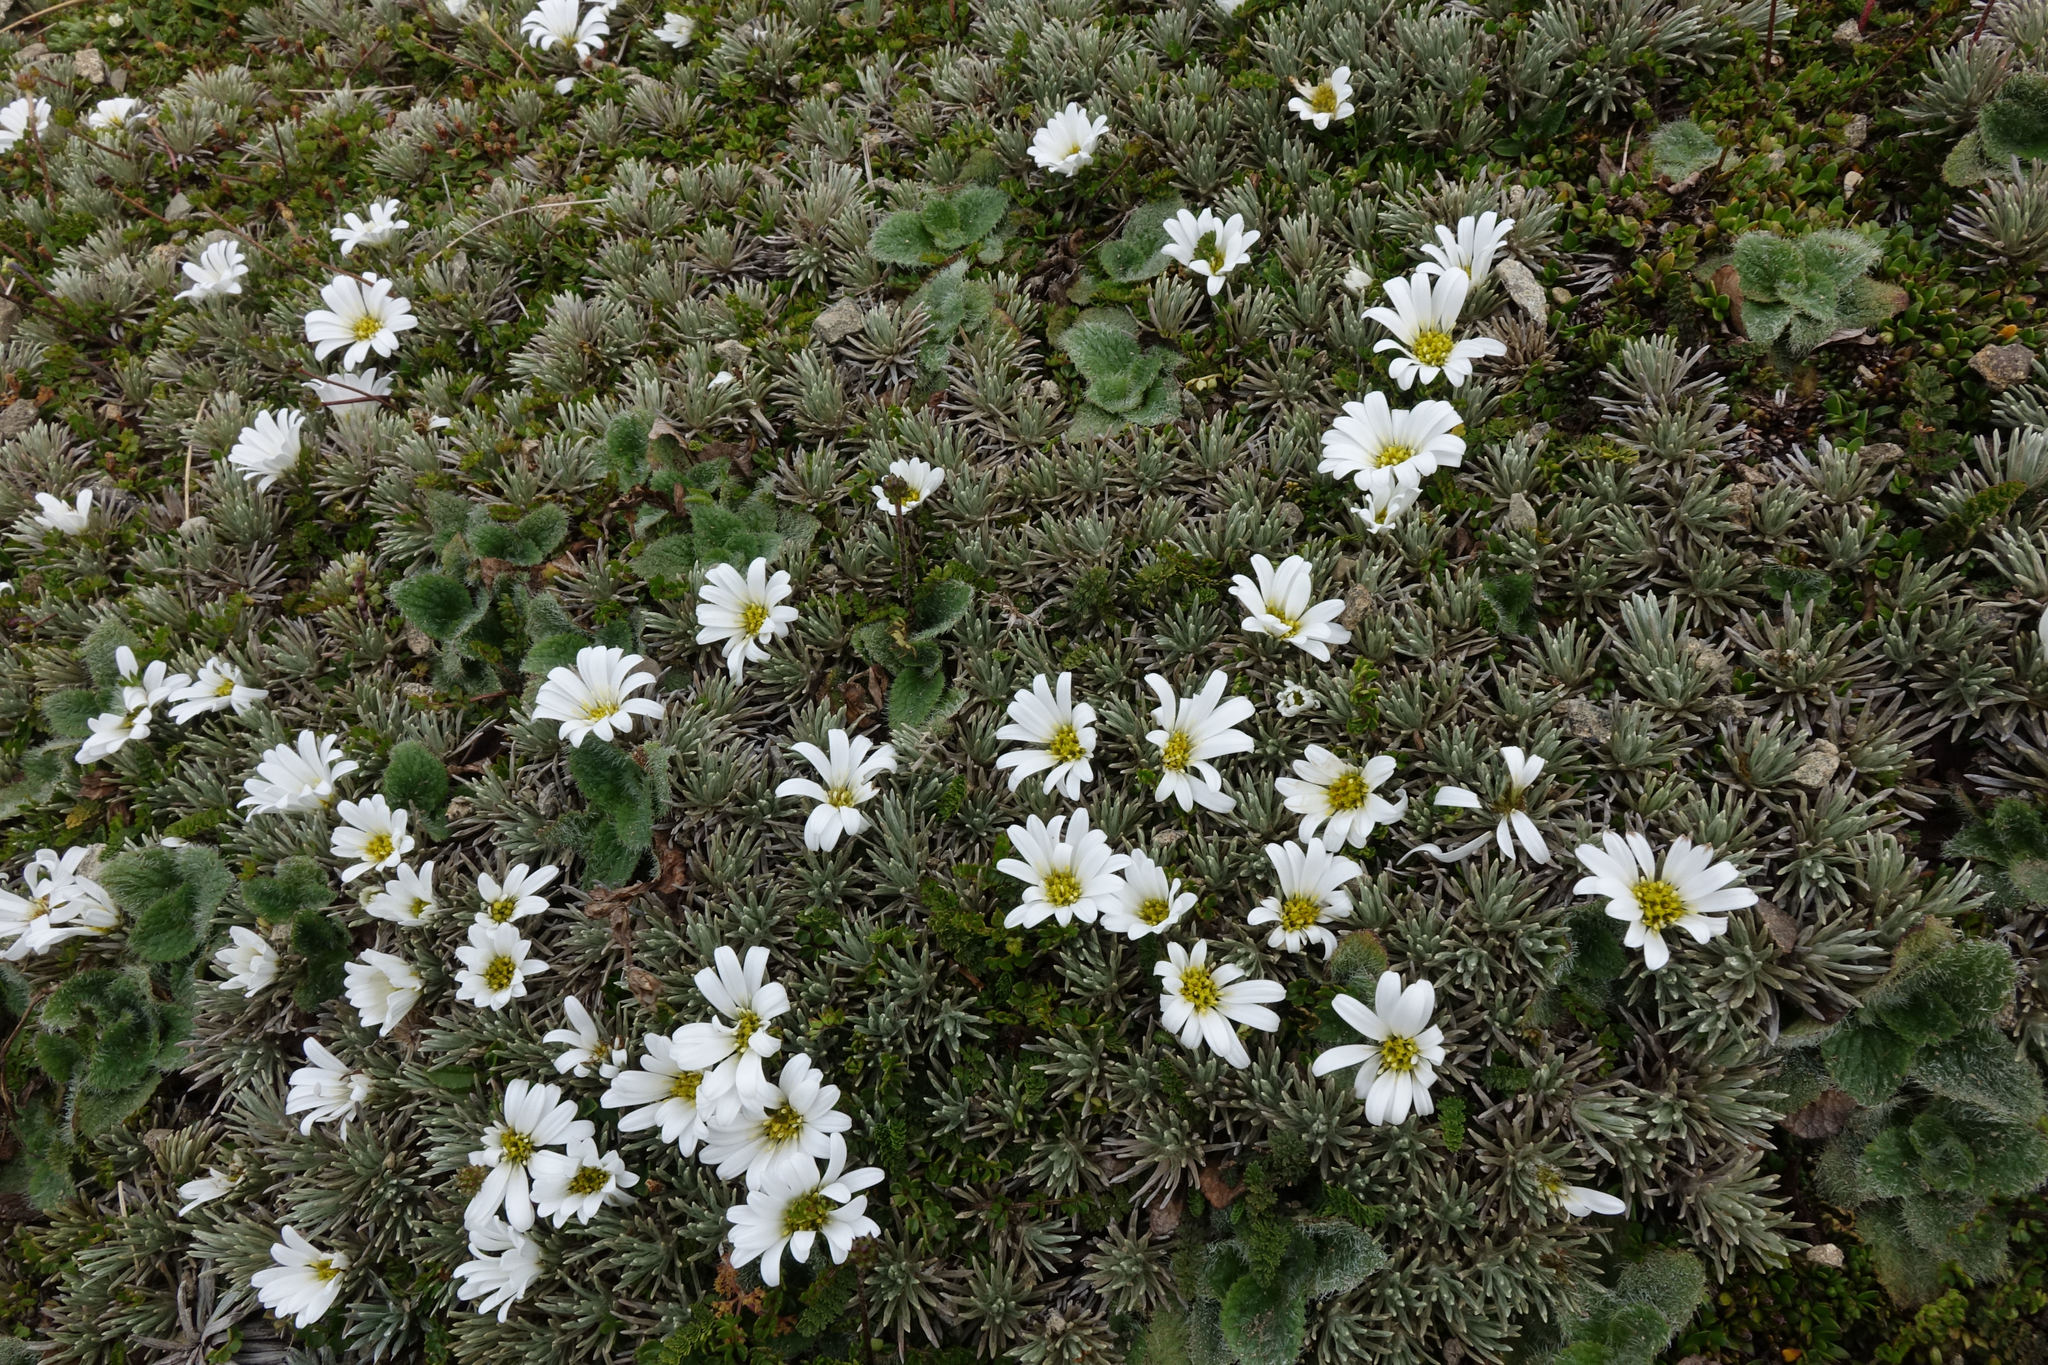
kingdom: Plantae
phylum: Tracheophyta
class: Magnoliopsida
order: Asterales
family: Asteraceae
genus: Celmisia
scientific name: Celmisia sessiliflora
